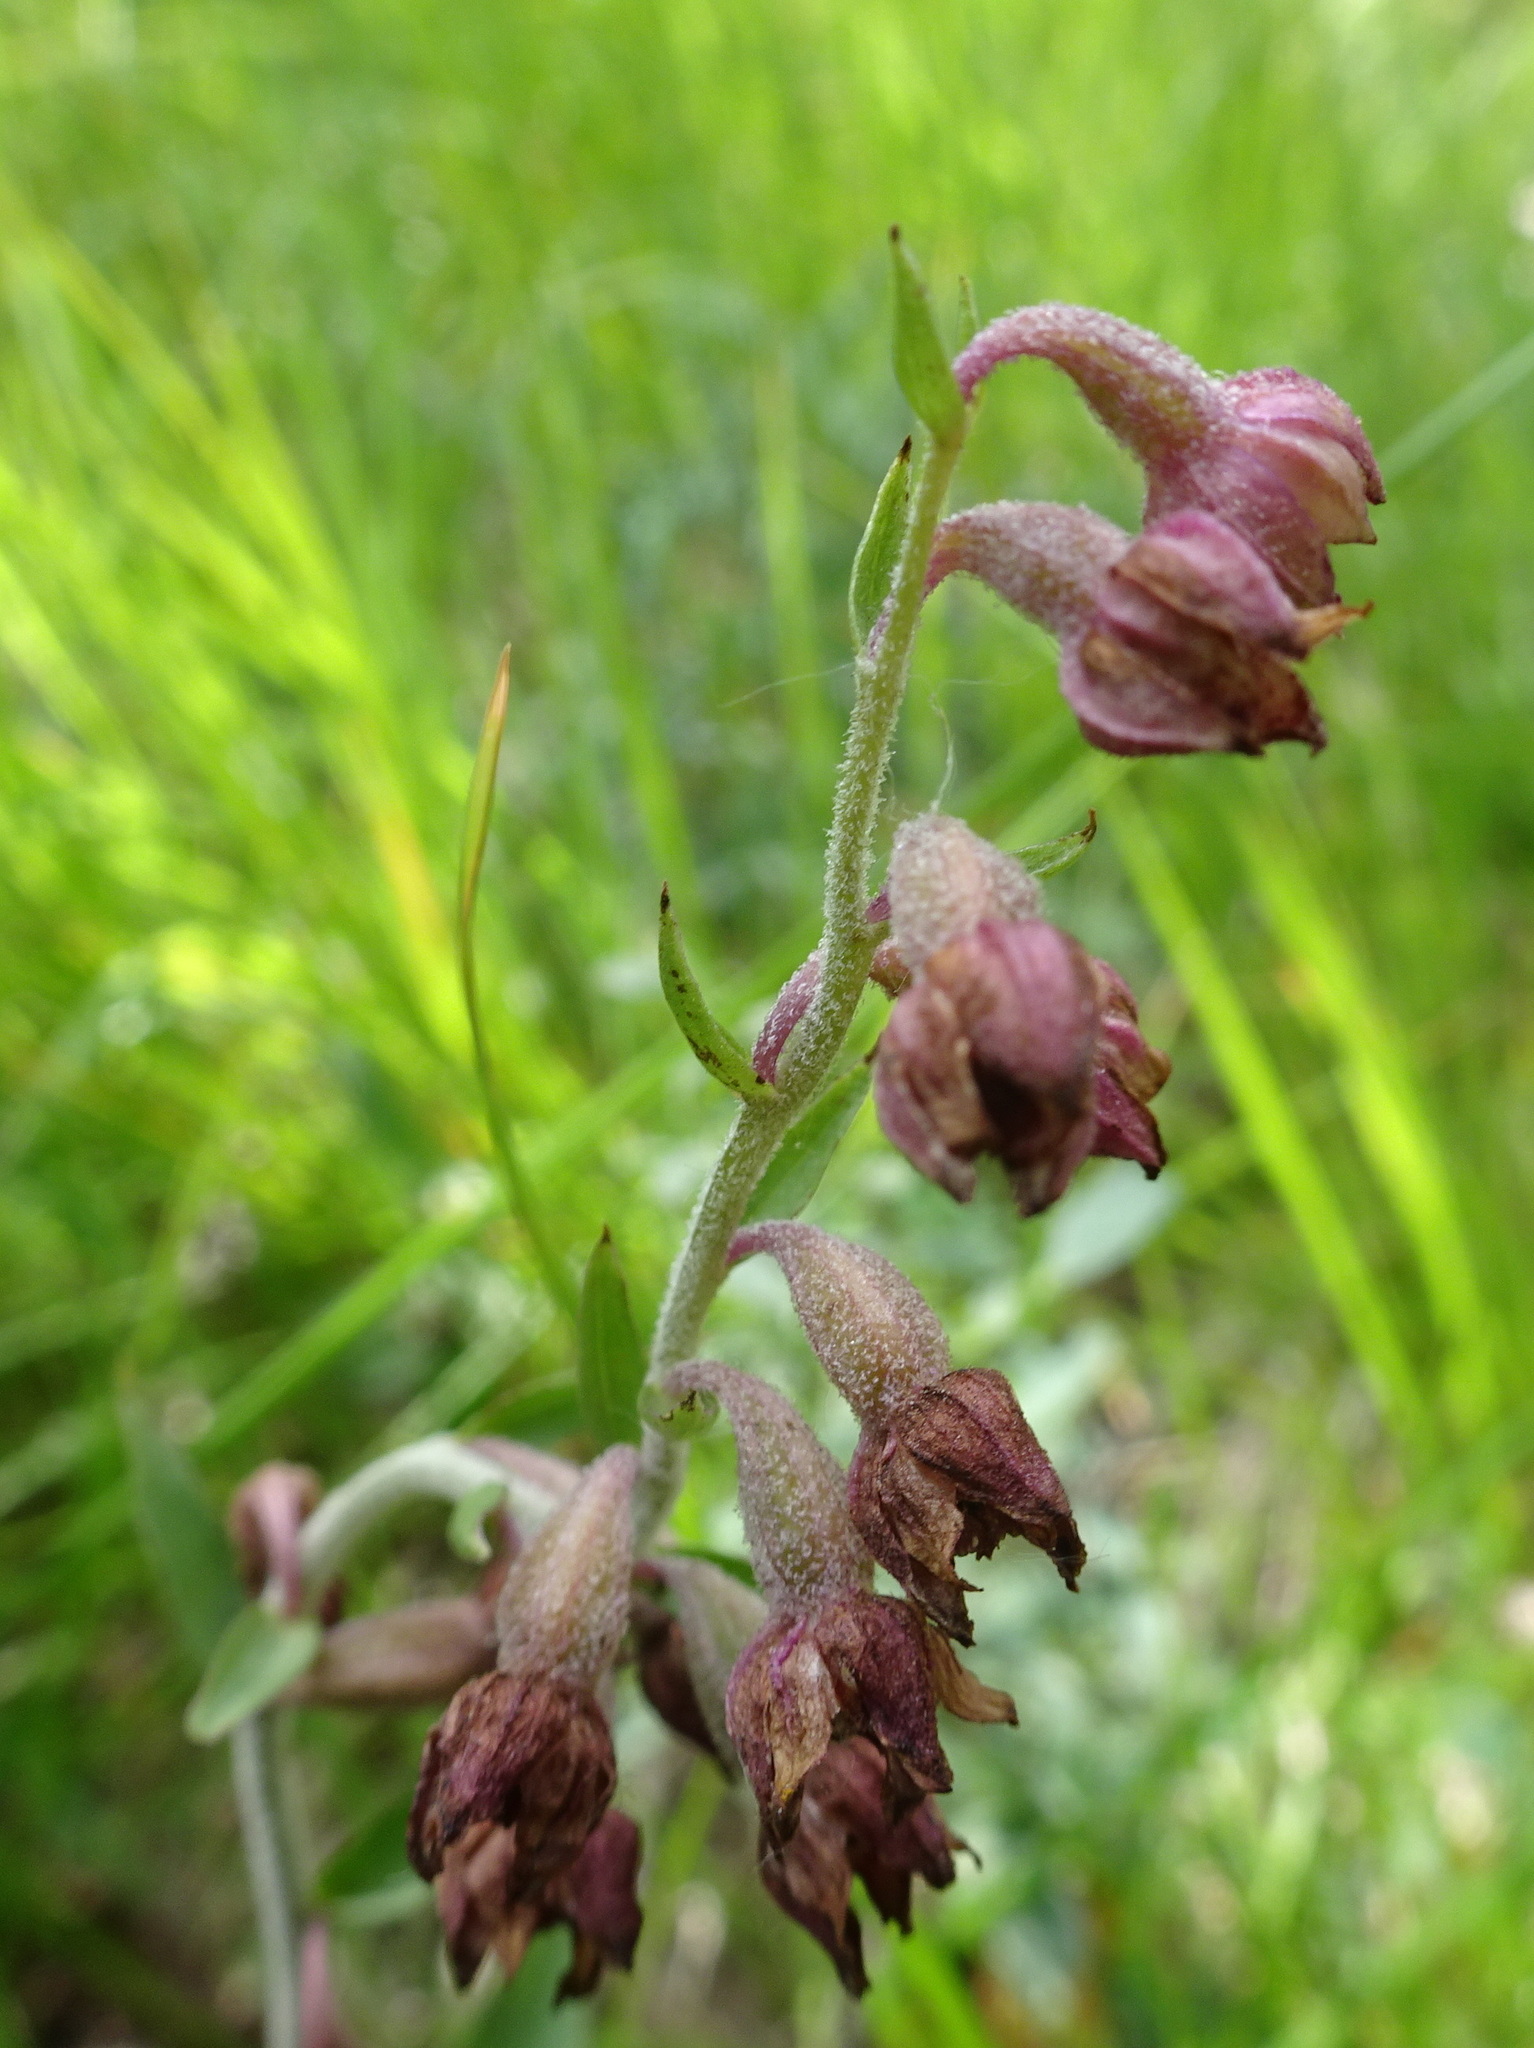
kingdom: Plantae
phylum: Tracheophyta
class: Liliopsida
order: Asparagales
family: Orchidaceae
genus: Epipactis
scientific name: Epipactis atrorubens
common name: Dark-red helleborine
